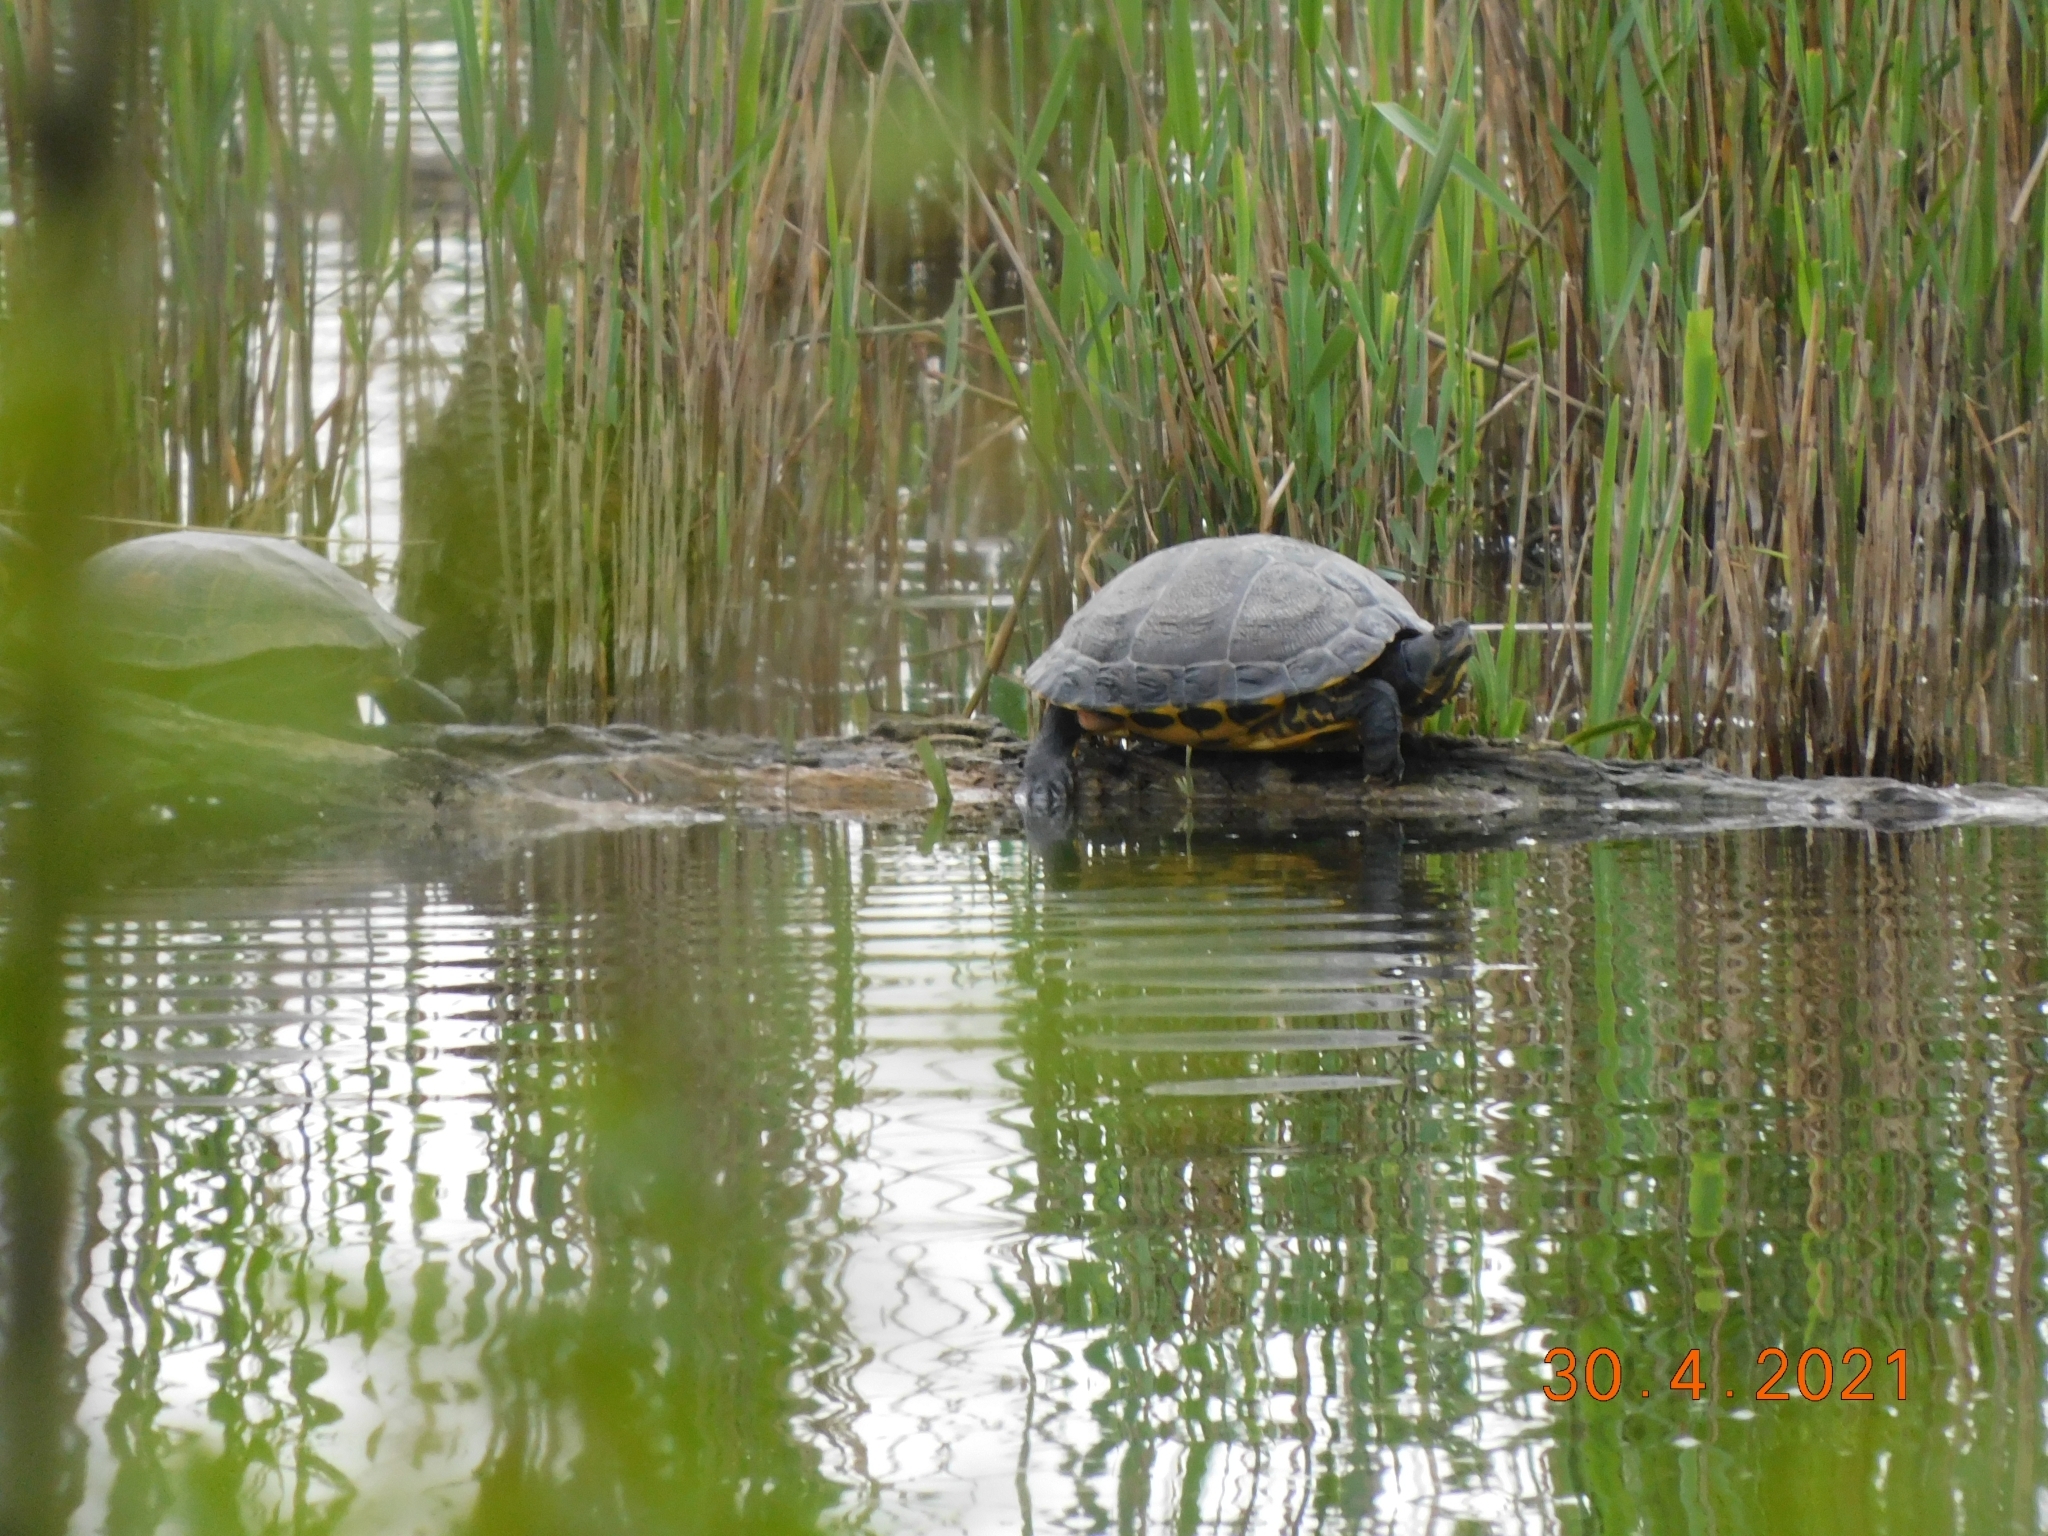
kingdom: Animalia
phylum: Chordata
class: Testudines
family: Emydidae
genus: Trachemys
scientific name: Trachemys scripta
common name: Slider
